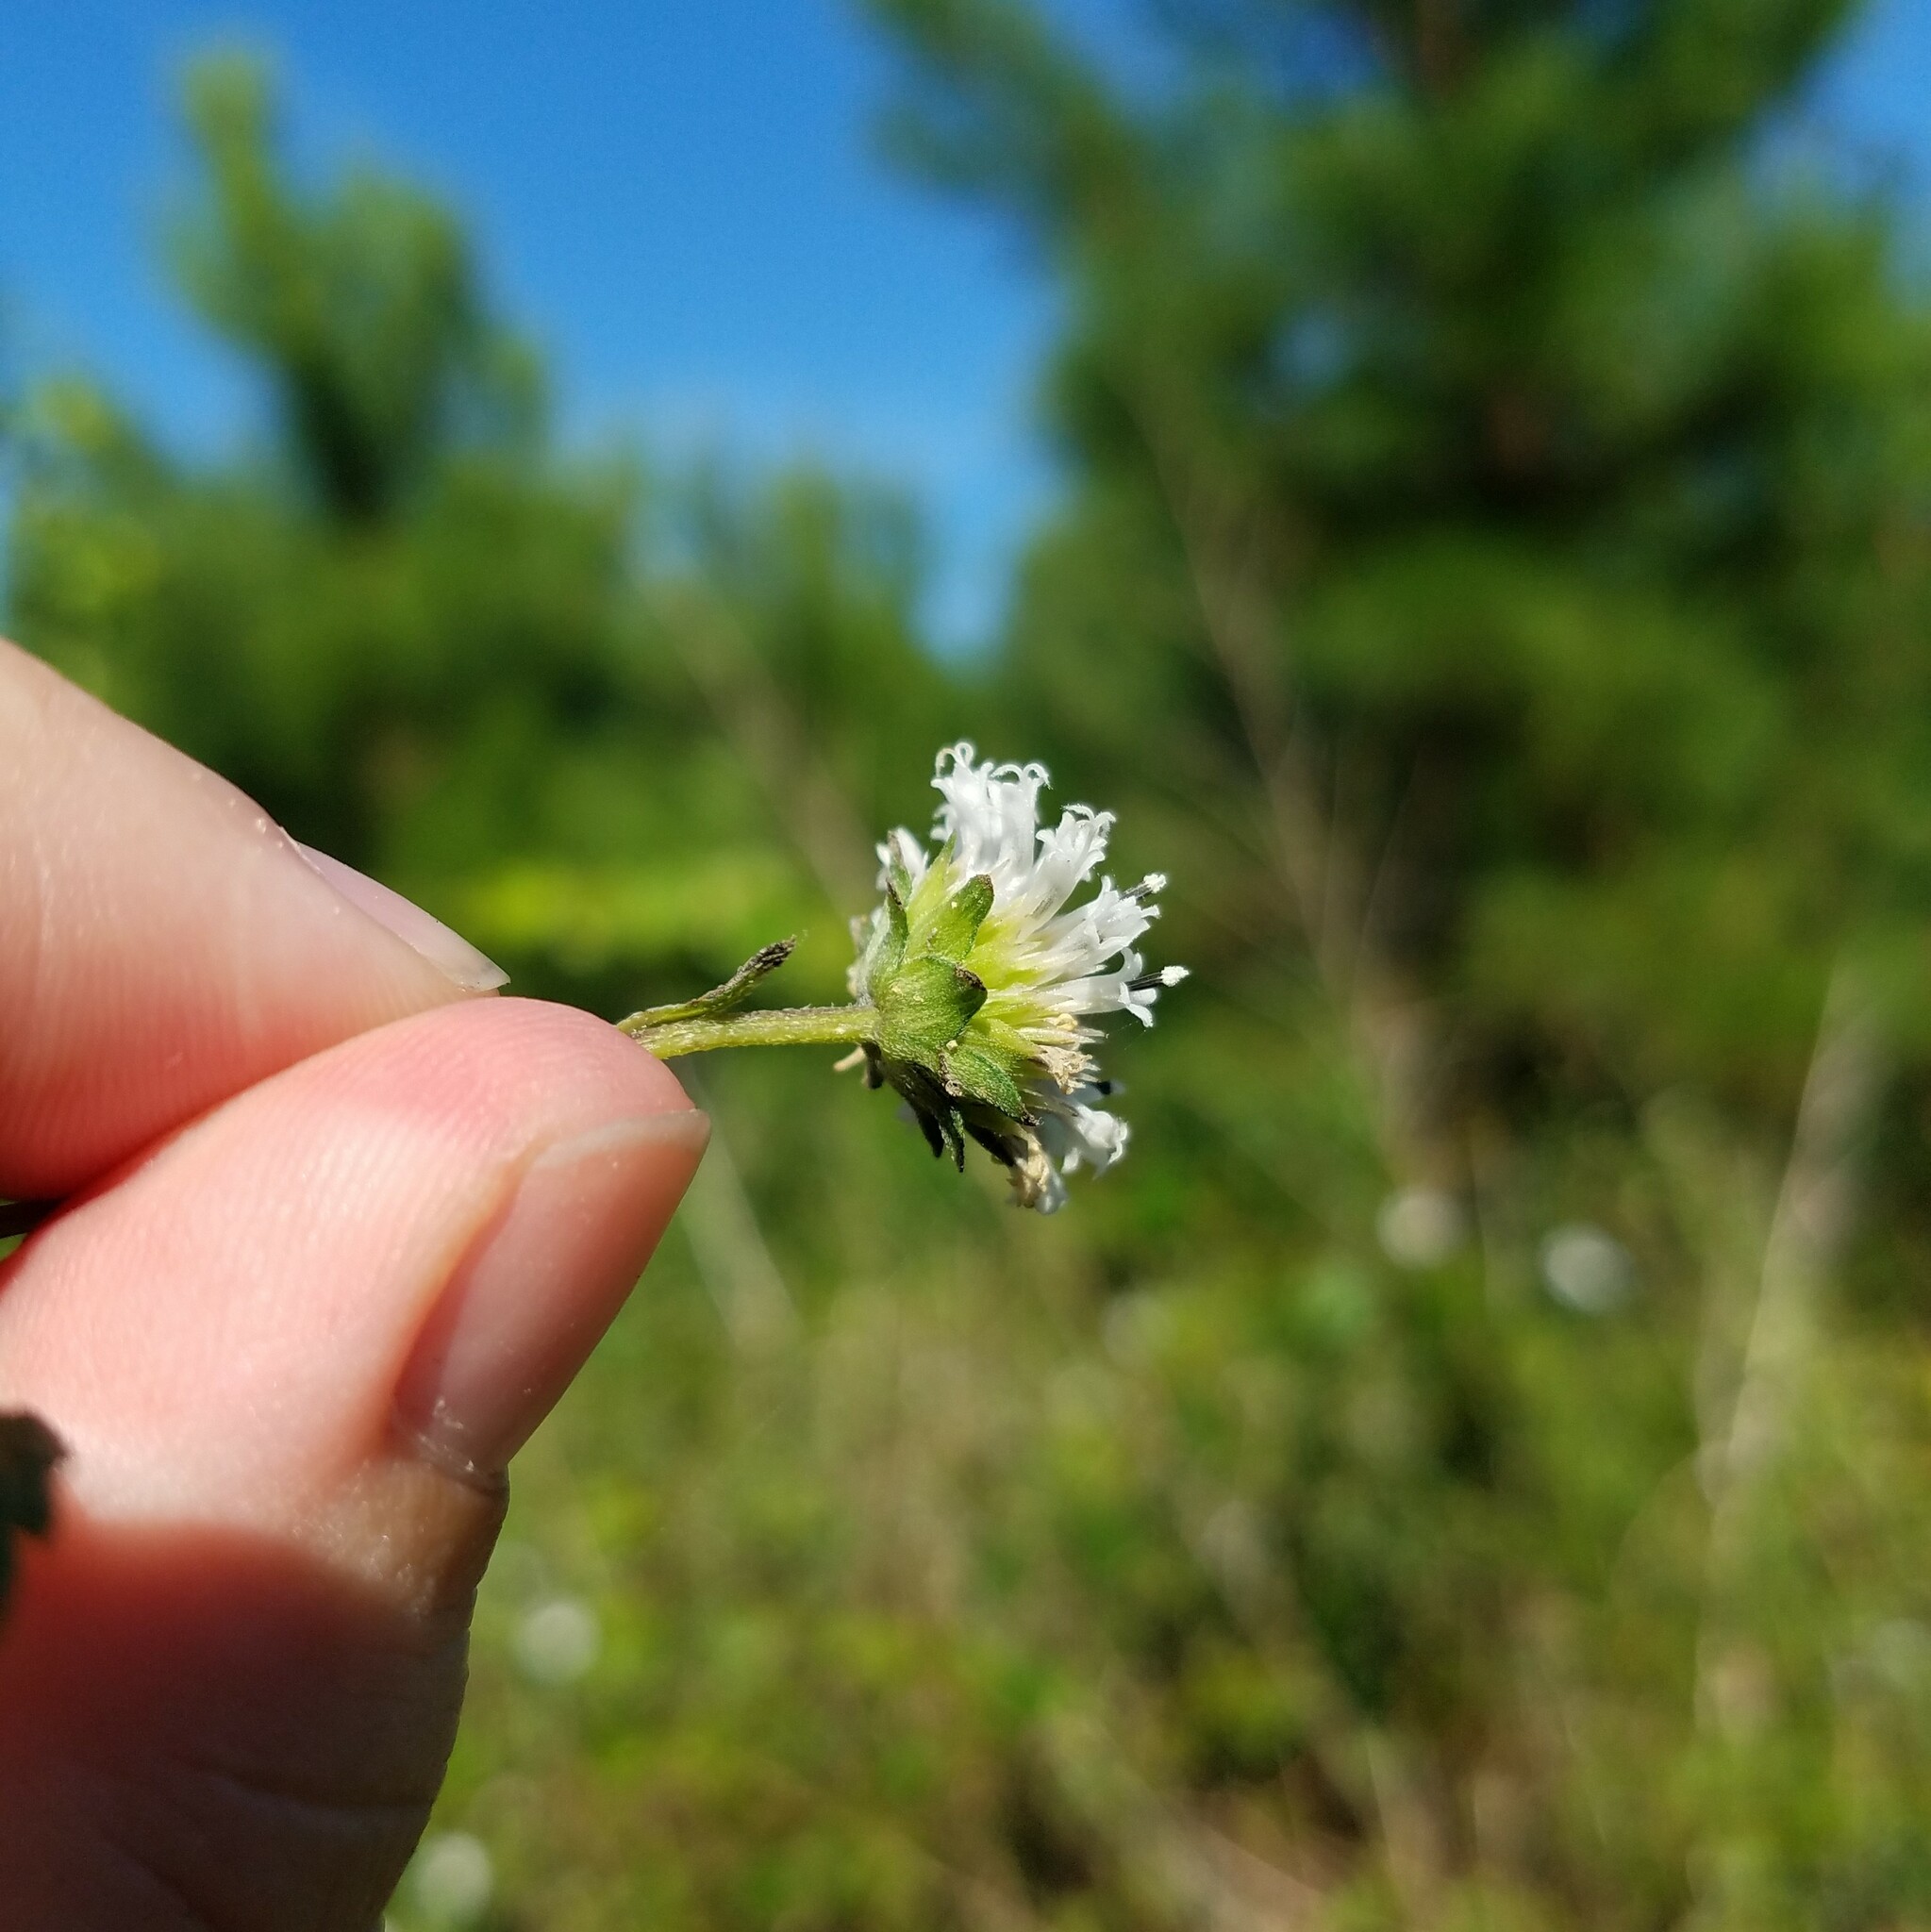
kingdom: Plantae
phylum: Tracheophyta
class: Magnoliopsida
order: Asterales
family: Asteraceae
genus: Melanthera
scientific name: Melanthera nivea
